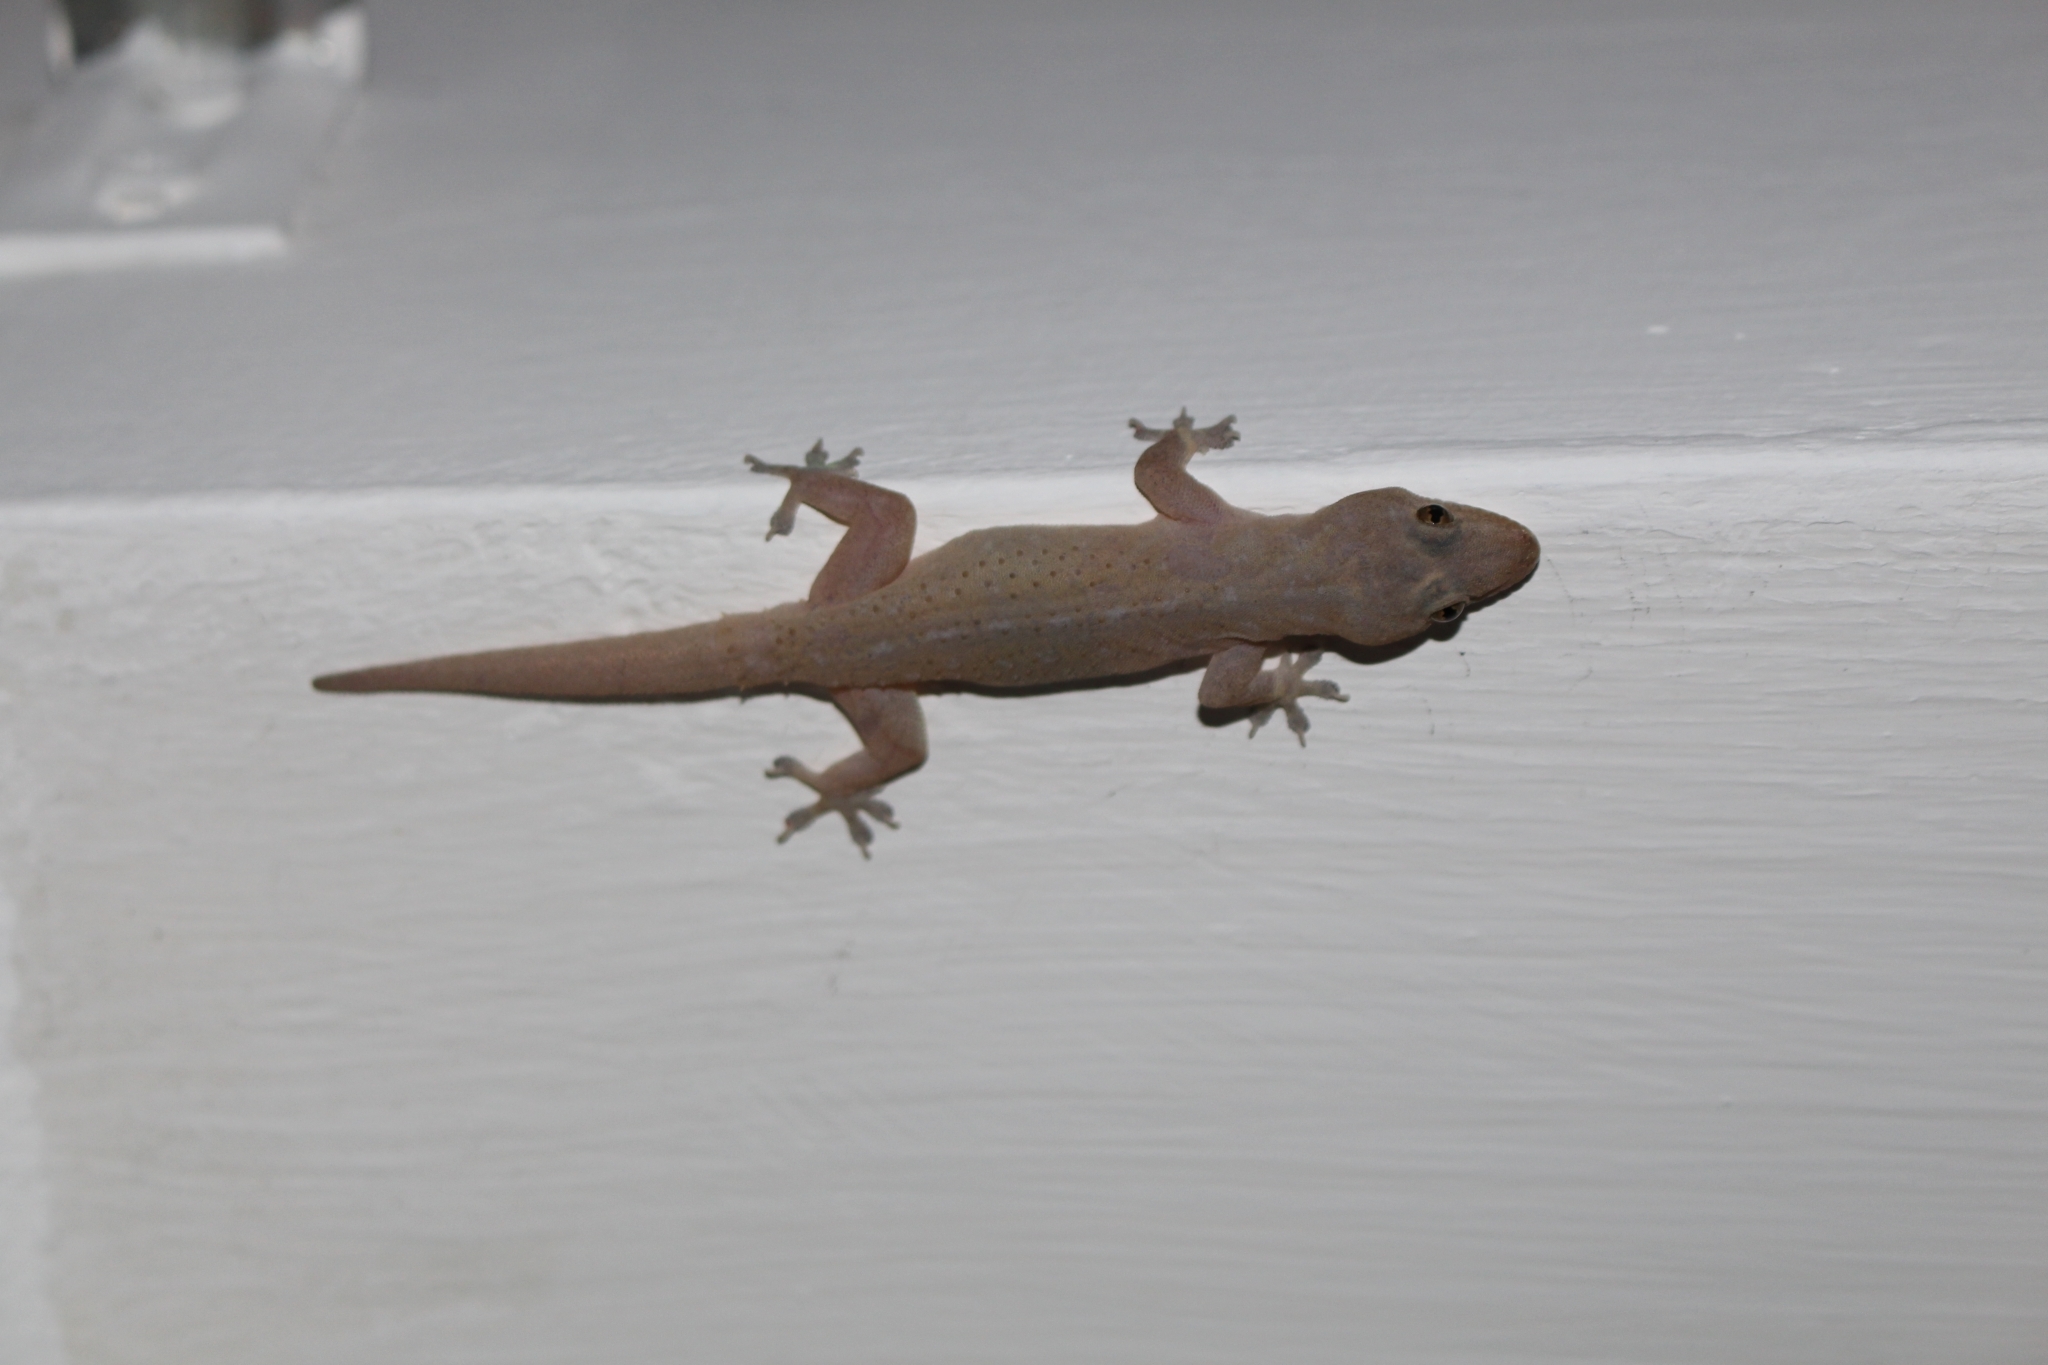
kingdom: Animalia
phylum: Chordata
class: Squamata
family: Gekkonidae
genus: Hemidactylus
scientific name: Hemidactylus frenatus
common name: Common house gecko
